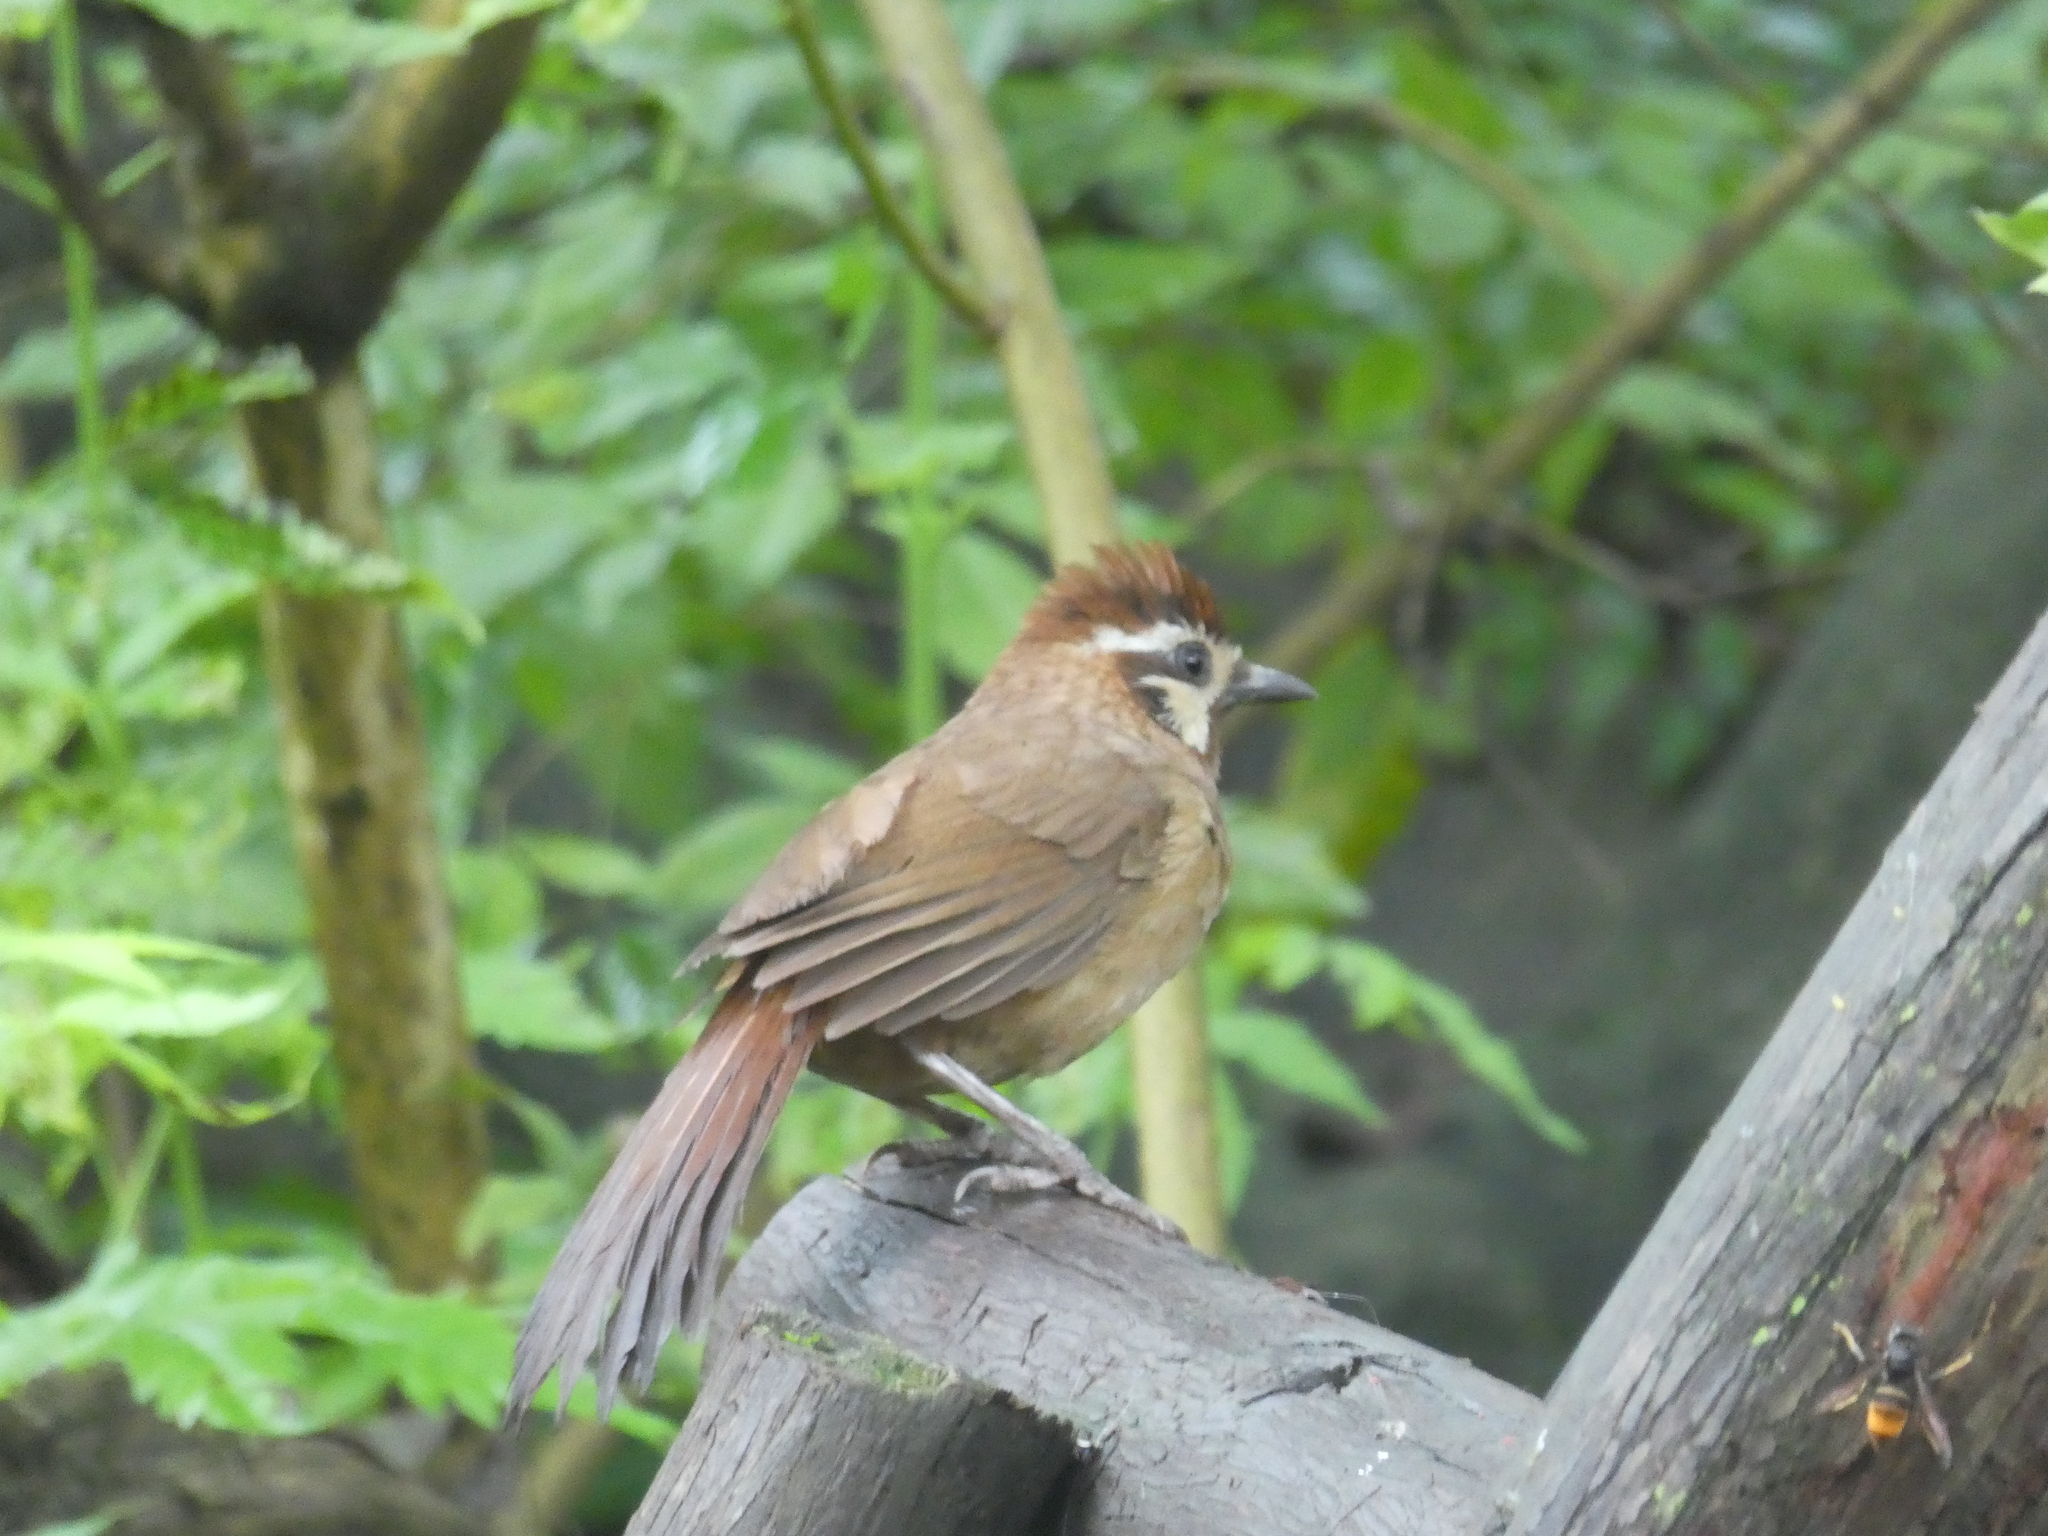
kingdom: Animalia
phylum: Chordata
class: Aves
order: Passeriformes
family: Leiothrichidae
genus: Pterorhinus
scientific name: Pterorhinus sannio
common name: White-browed laughingthrush
